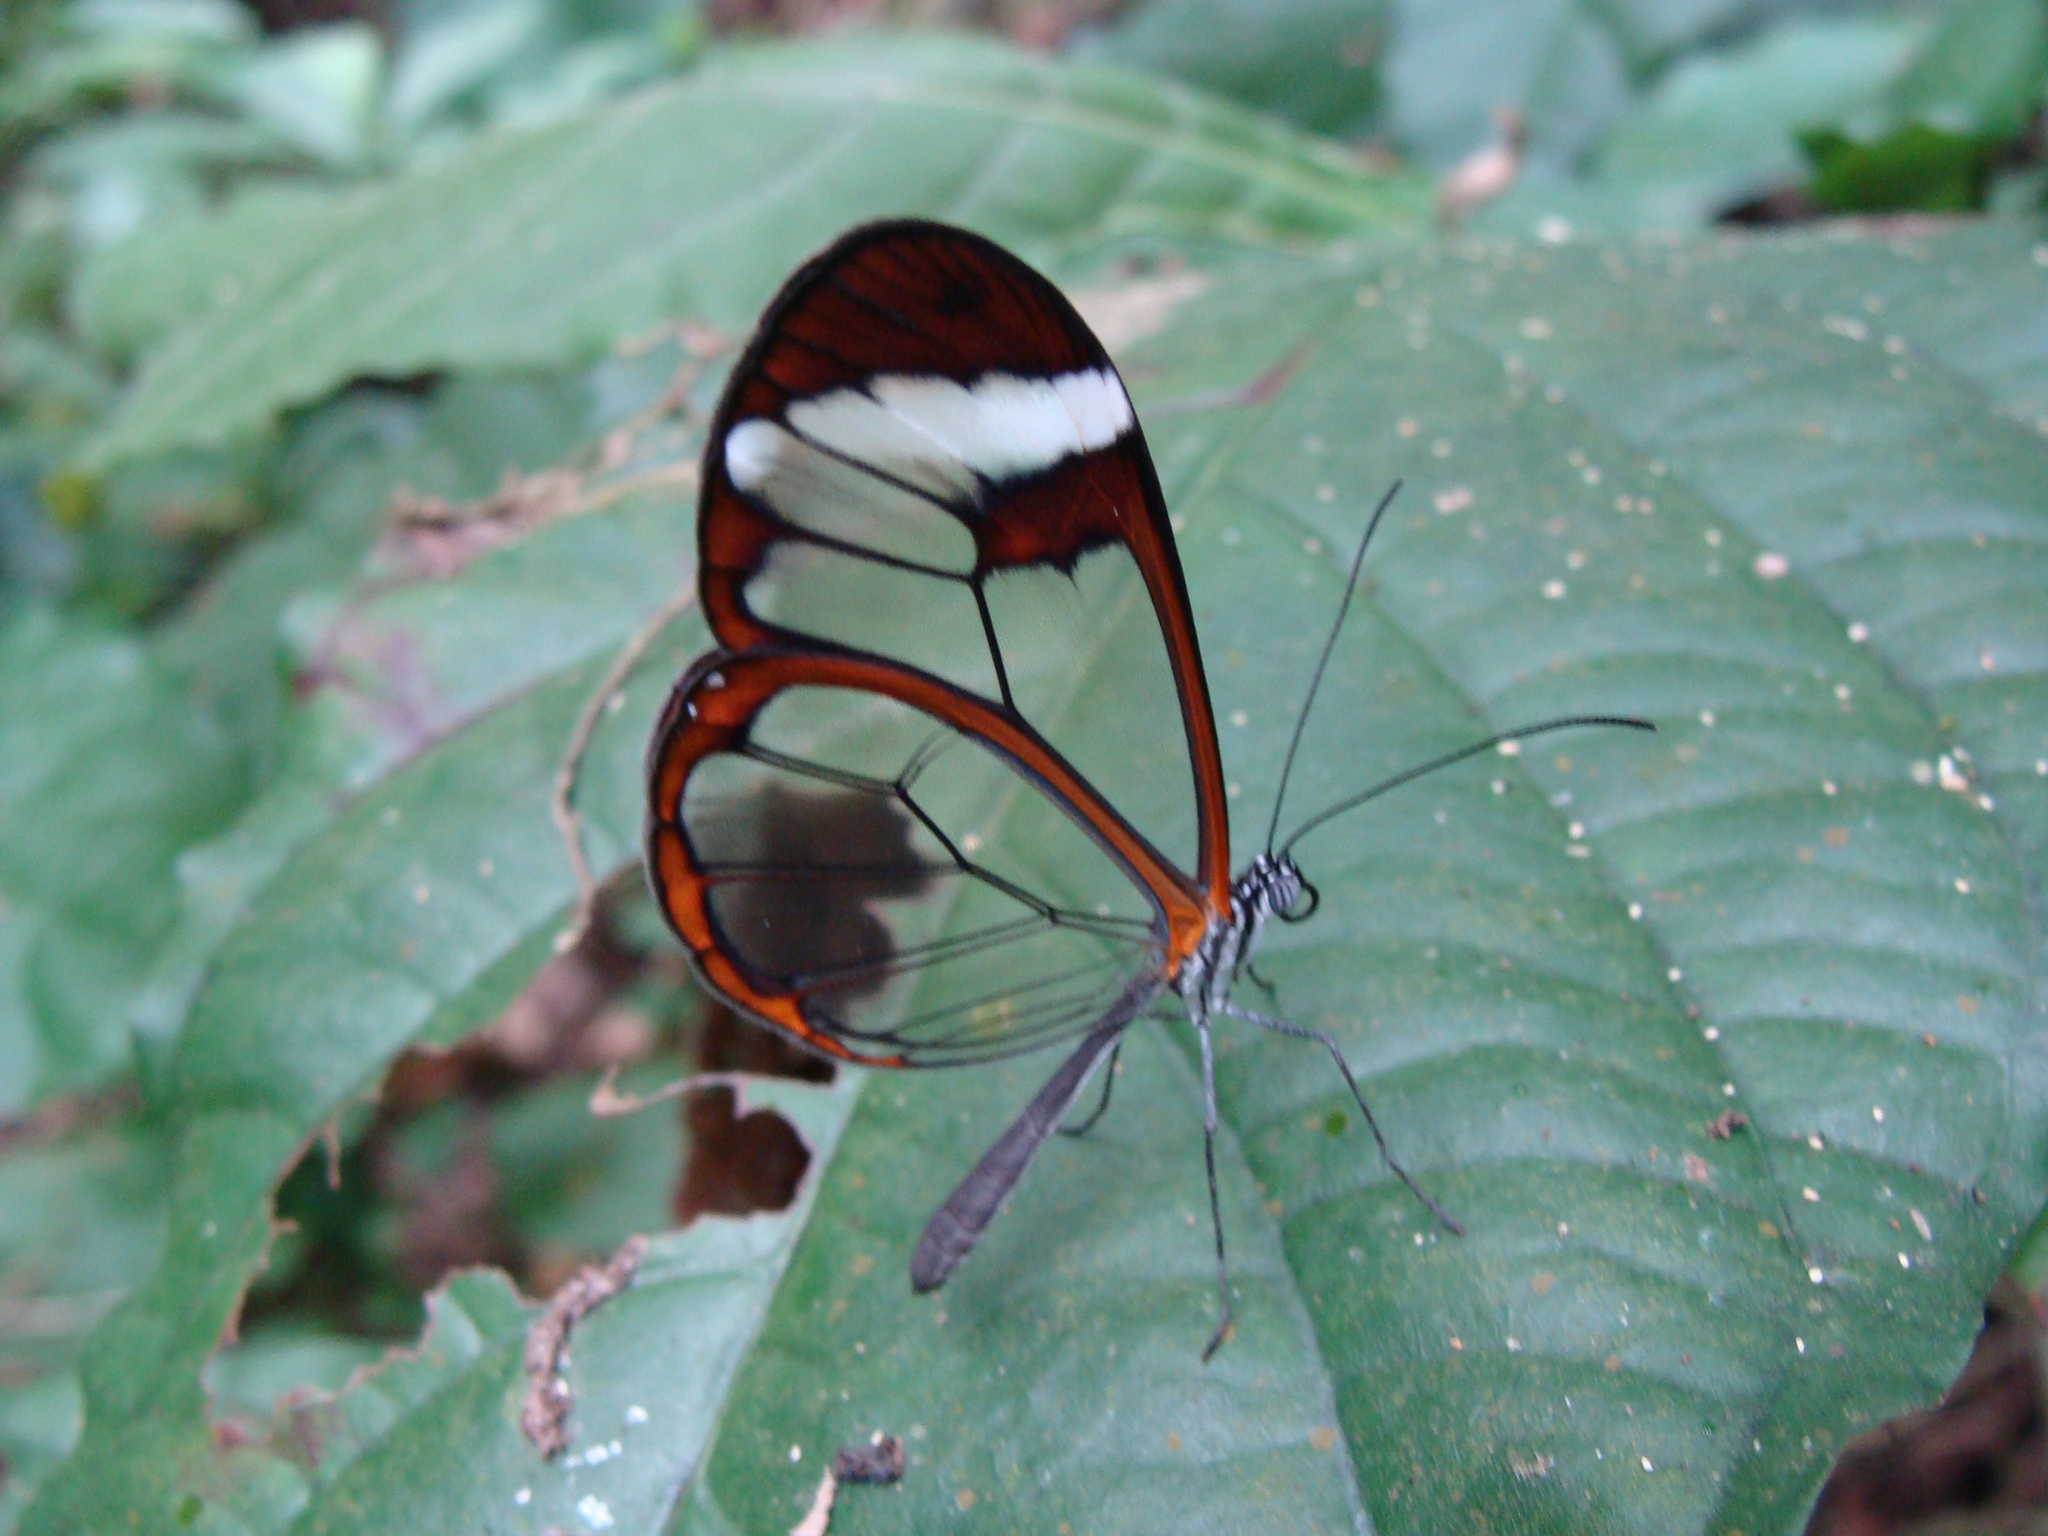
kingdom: Animalia
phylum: Arthropoda
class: Insecta
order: Lepidoptera
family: Nymphalidae
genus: Greta
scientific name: Greta morgane
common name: Thick-tipped greta
